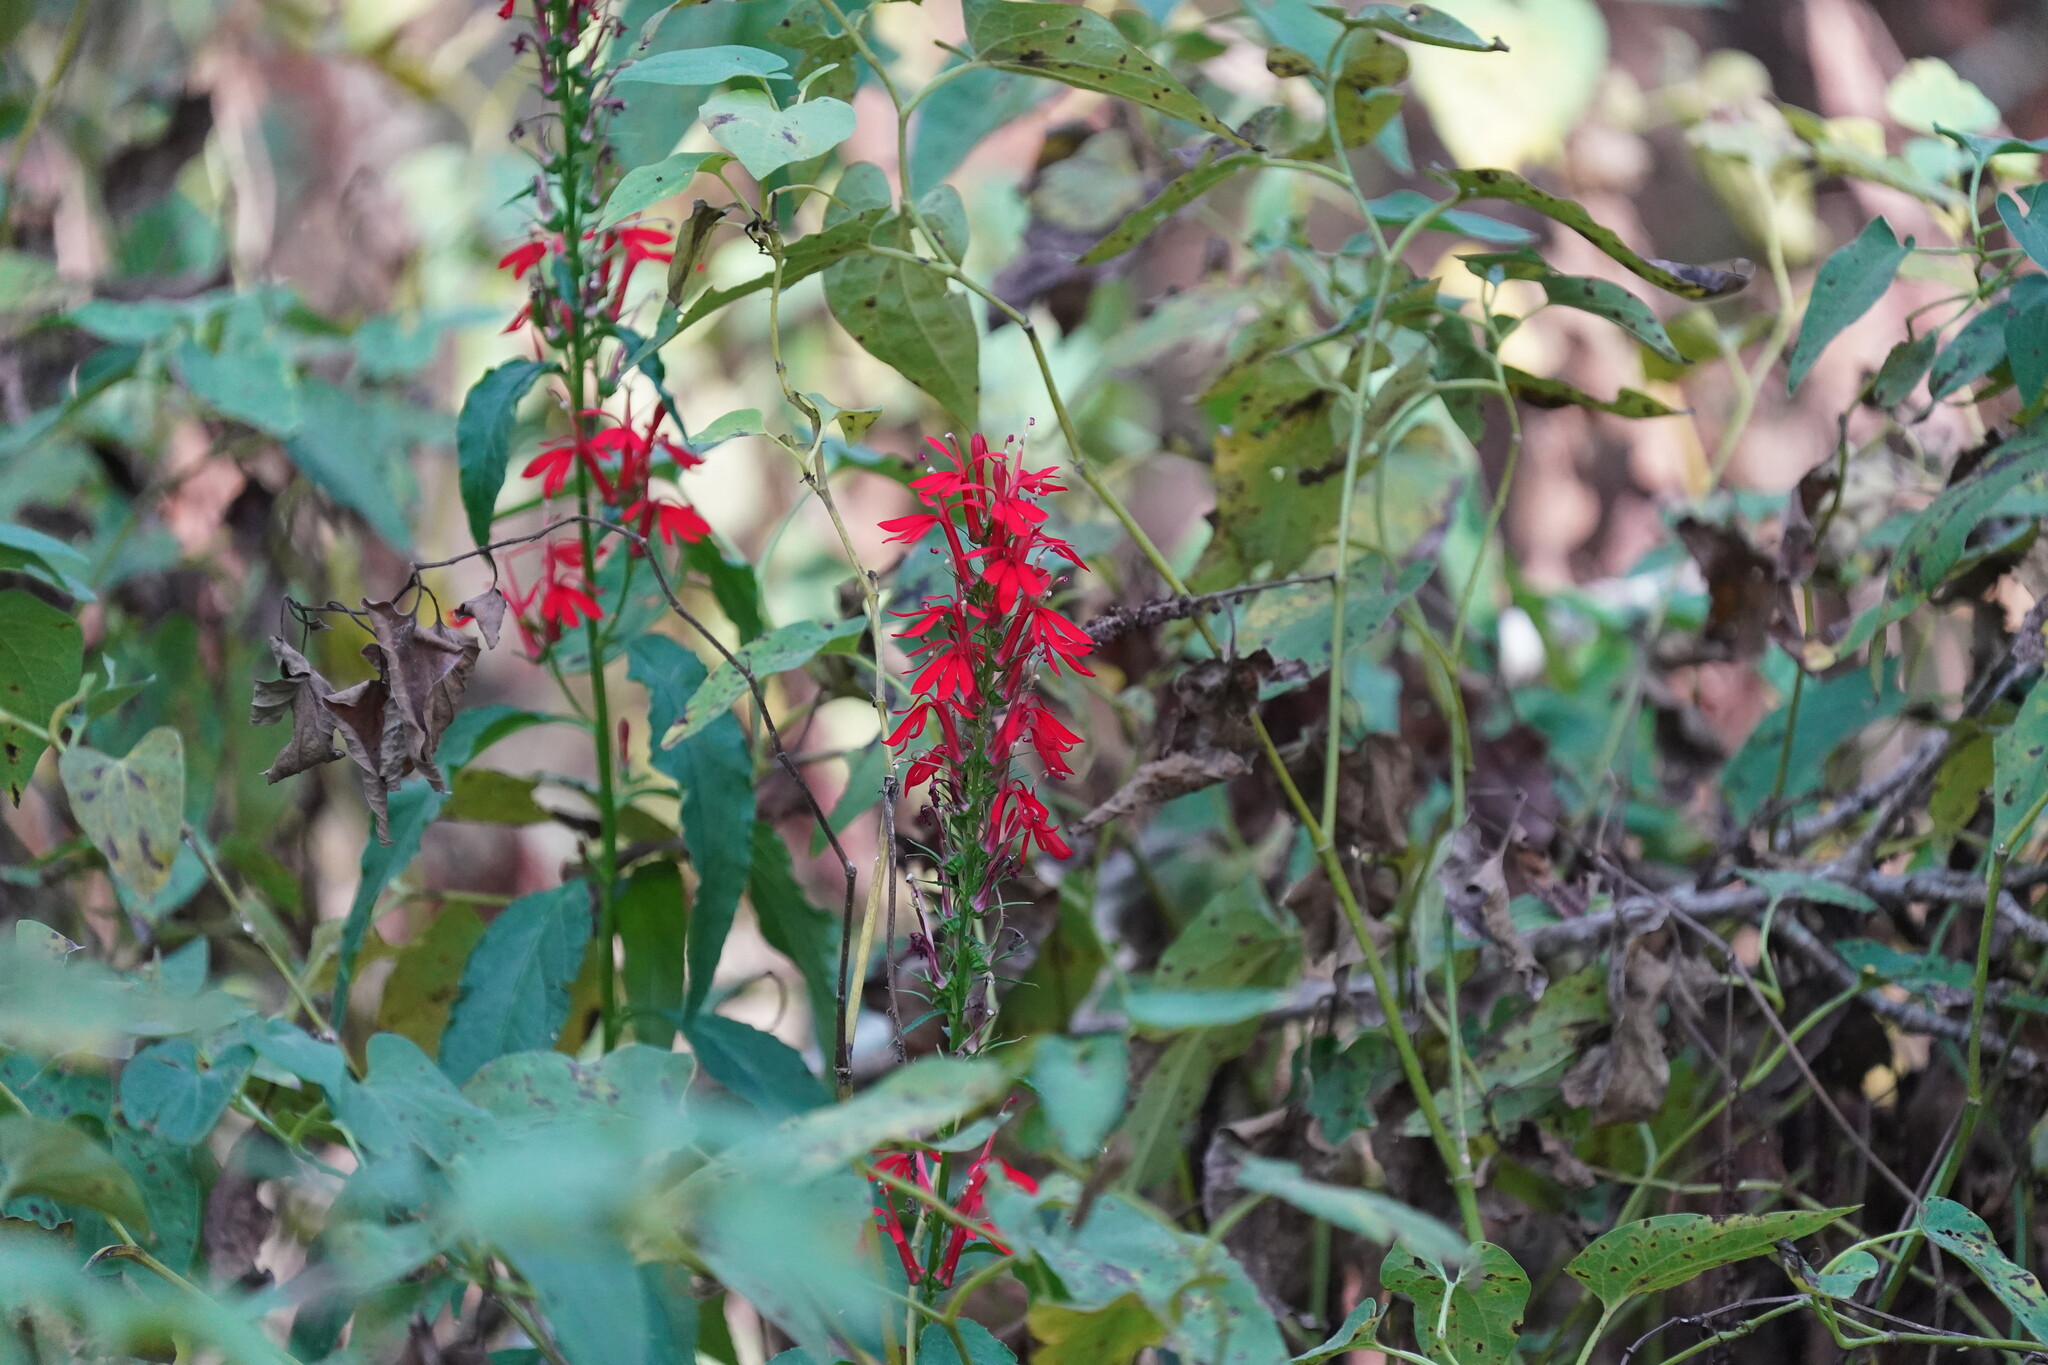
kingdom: Plantae
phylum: Tracheophyta
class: Magnoliopsida
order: Asterales
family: Campanulaceae
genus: Lobelia
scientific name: Lobelia cardinalis
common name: Cardinal flower
